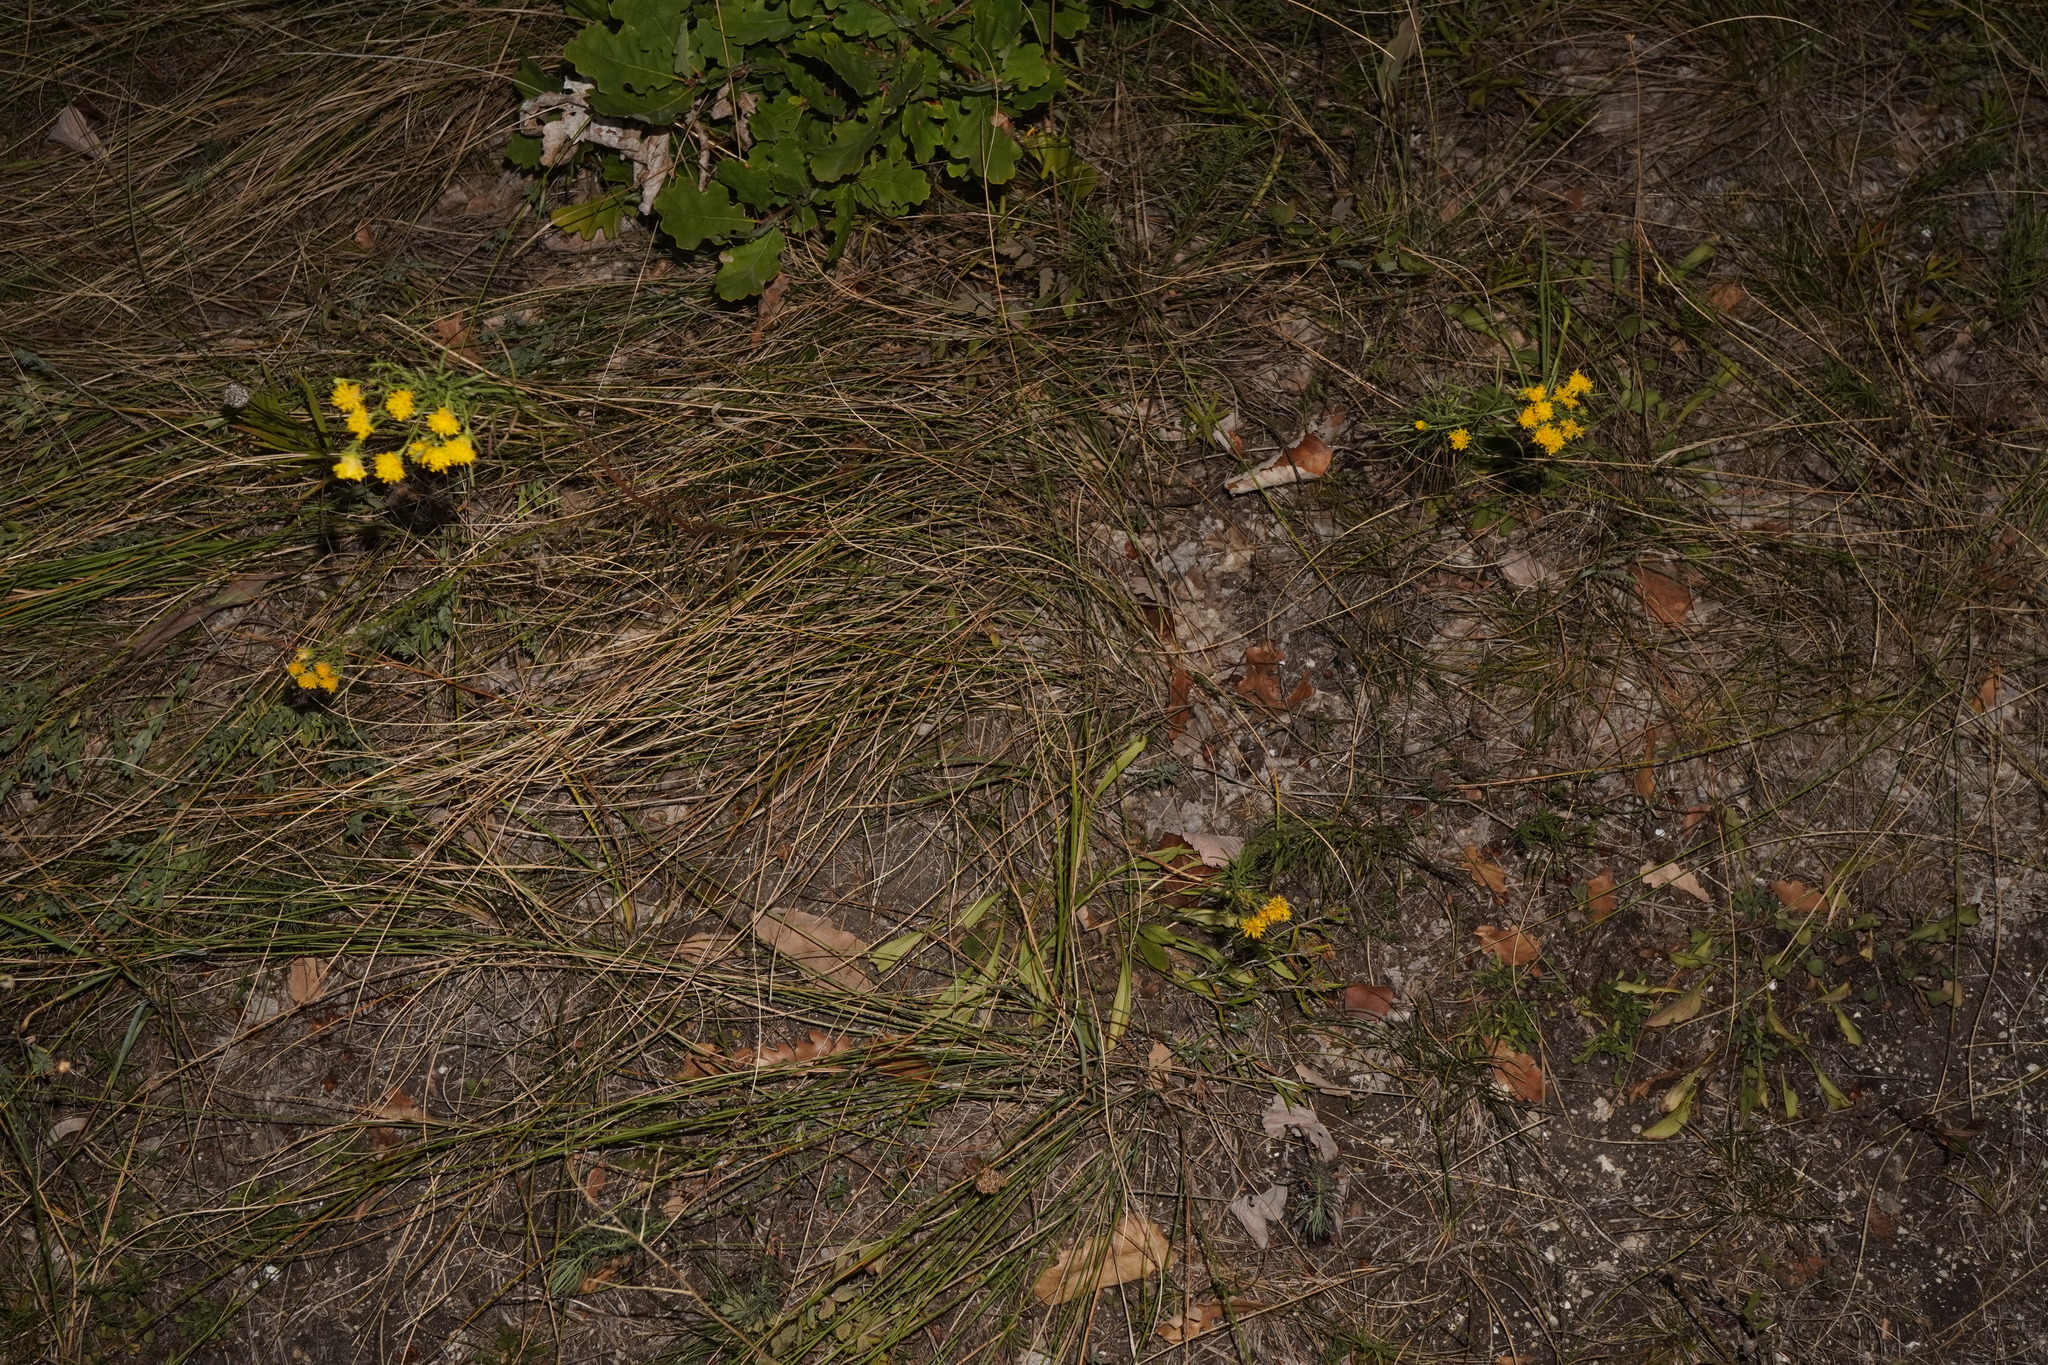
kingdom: Plantae
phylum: Tracheophyta
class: Magnoliopsida
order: Asterales
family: Asteraceae
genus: Galatella
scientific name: Galatella linosyris
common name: Goldilocks aster
